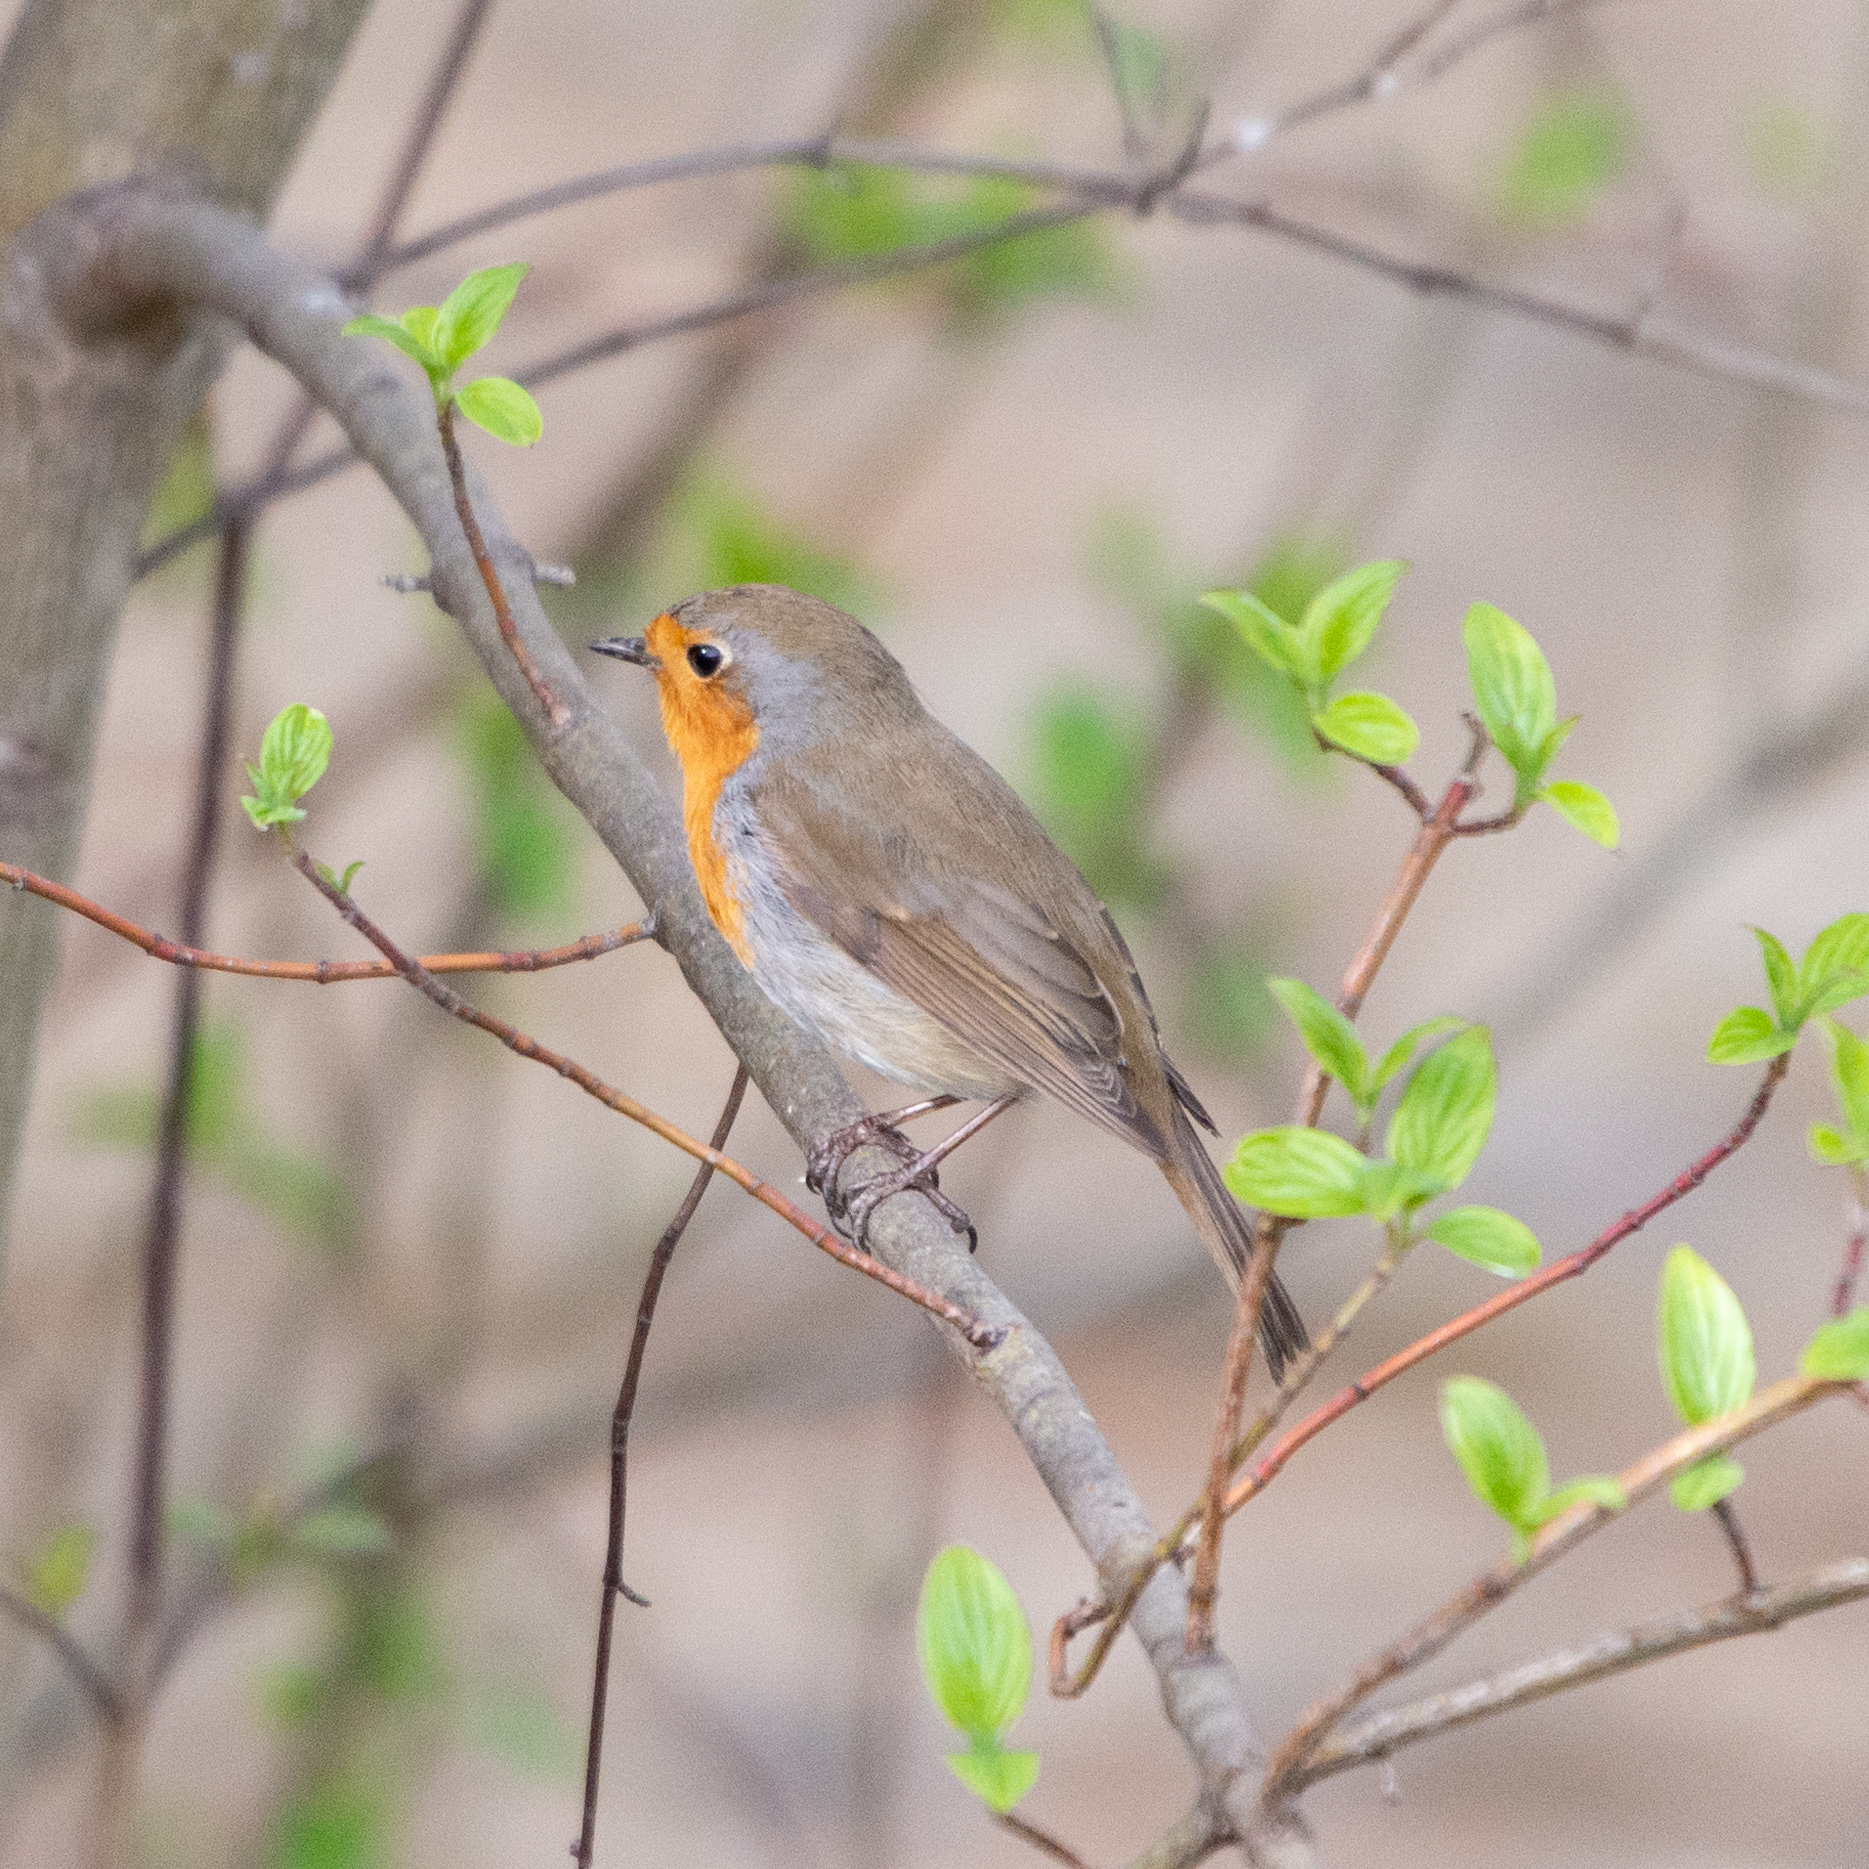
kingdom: Animalia
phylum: Chordata
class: Aves
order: Passeriformes
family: Muscicapidae
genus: Erithacus
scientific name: Erithacus rubecula
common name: European robin
